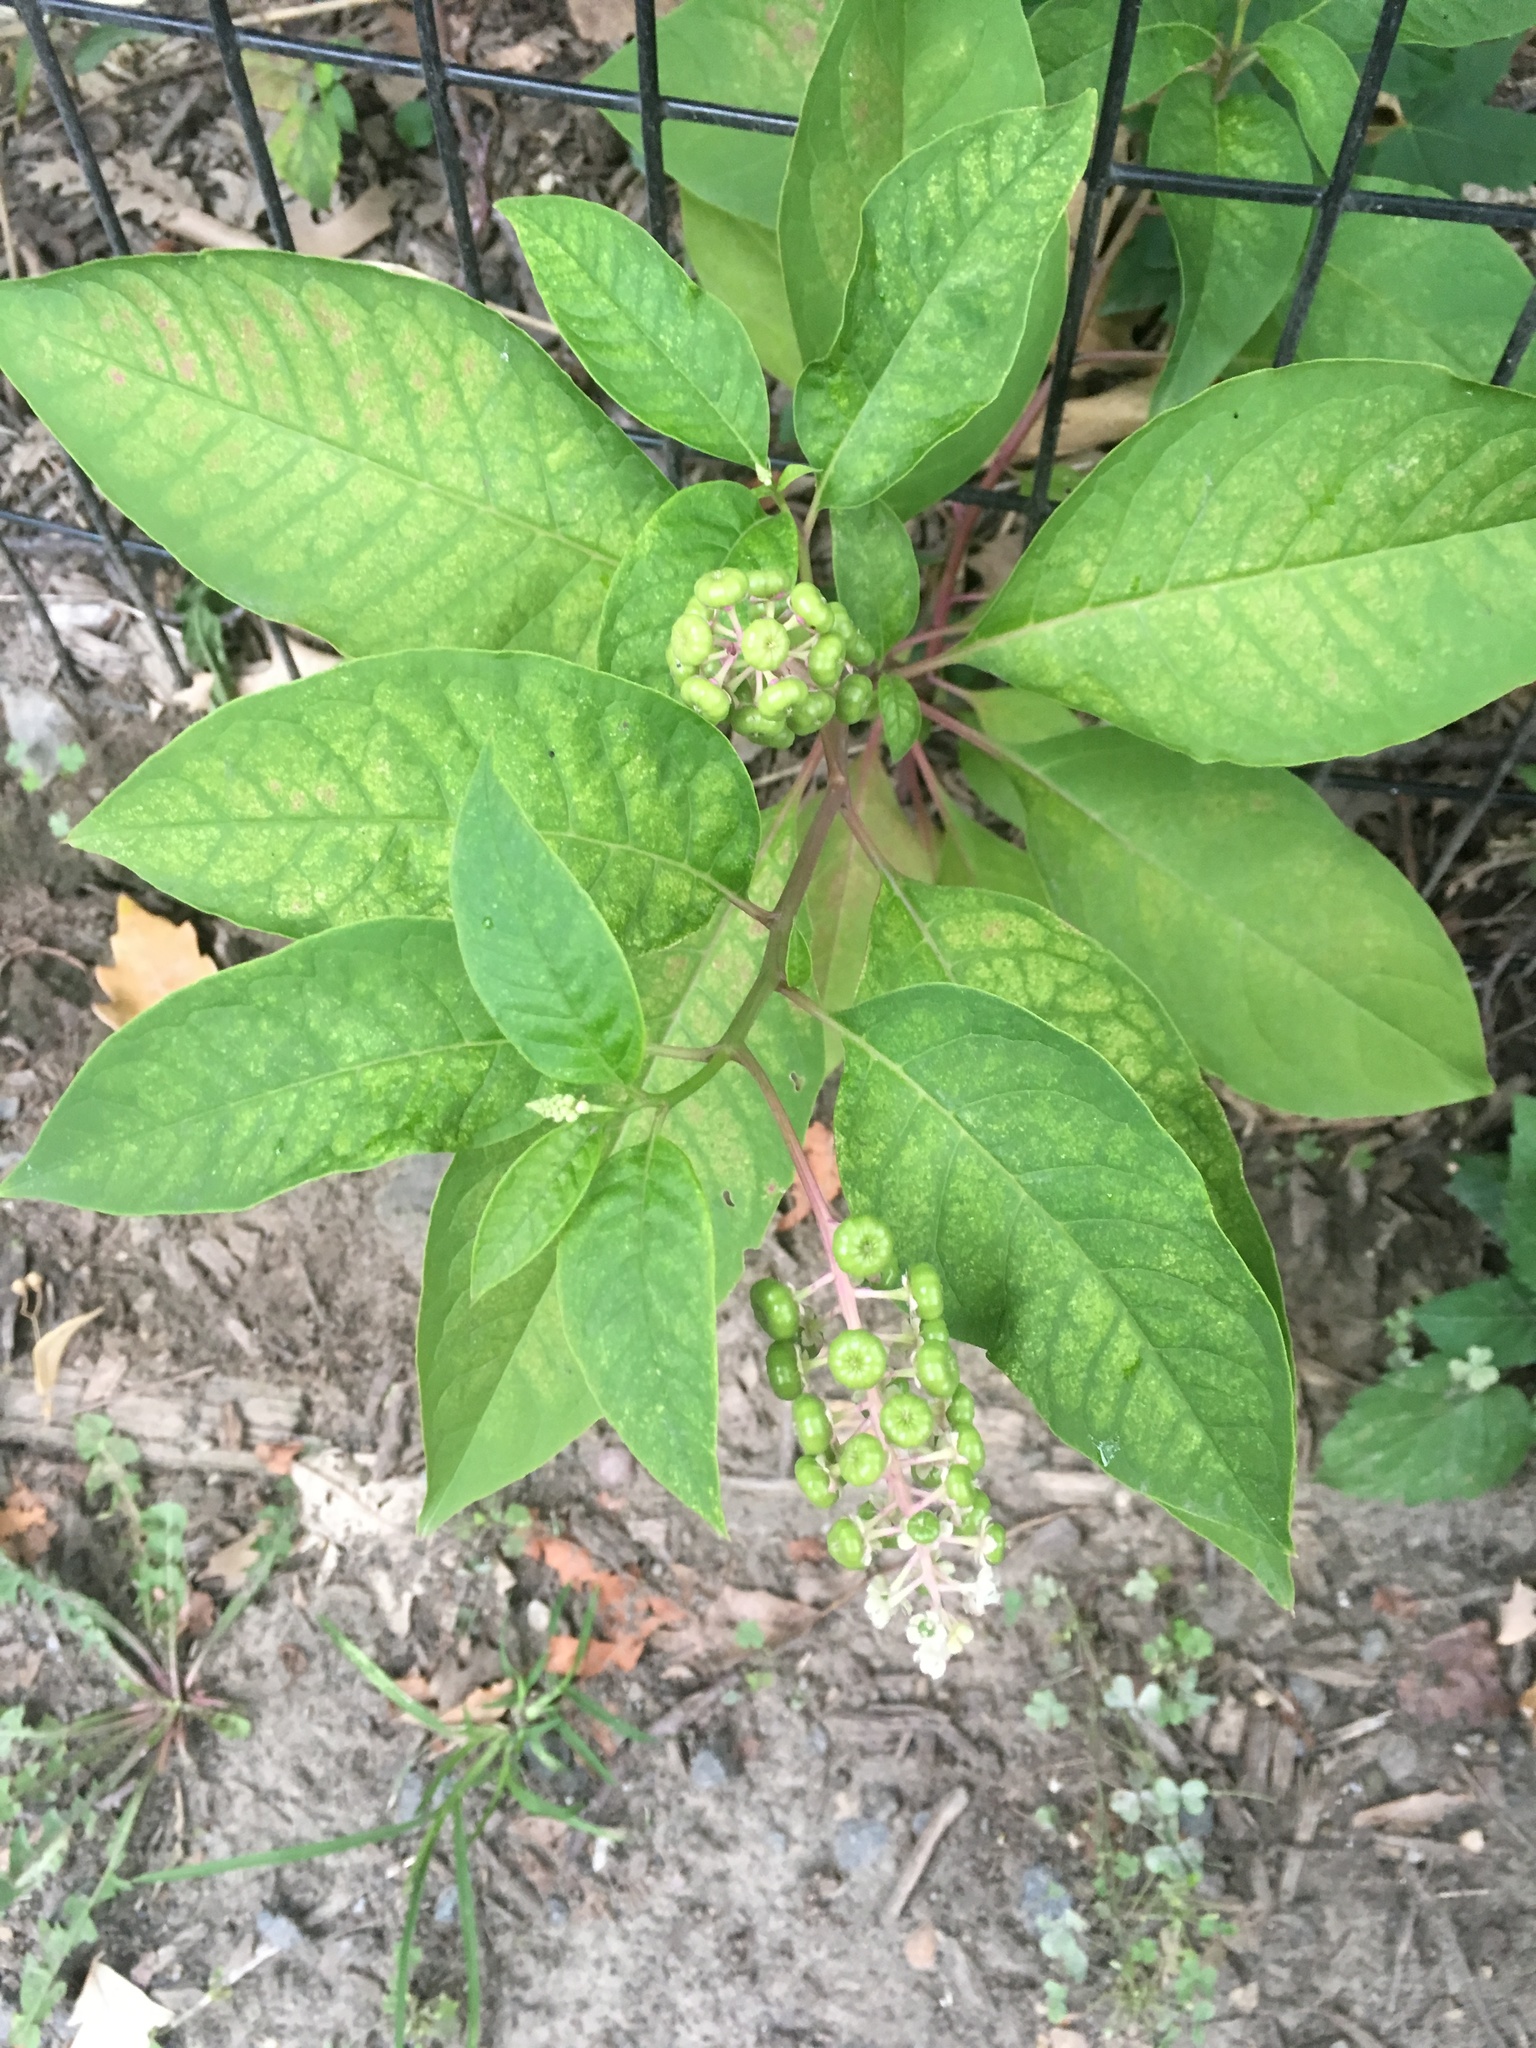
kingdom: Plantae
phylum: Tracheophyta
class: Magnoliopsida
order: Caryophyllales
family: Phytolaccaceae
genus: Phytolacca
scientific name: Phytolacca americana
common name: American pokeweed
